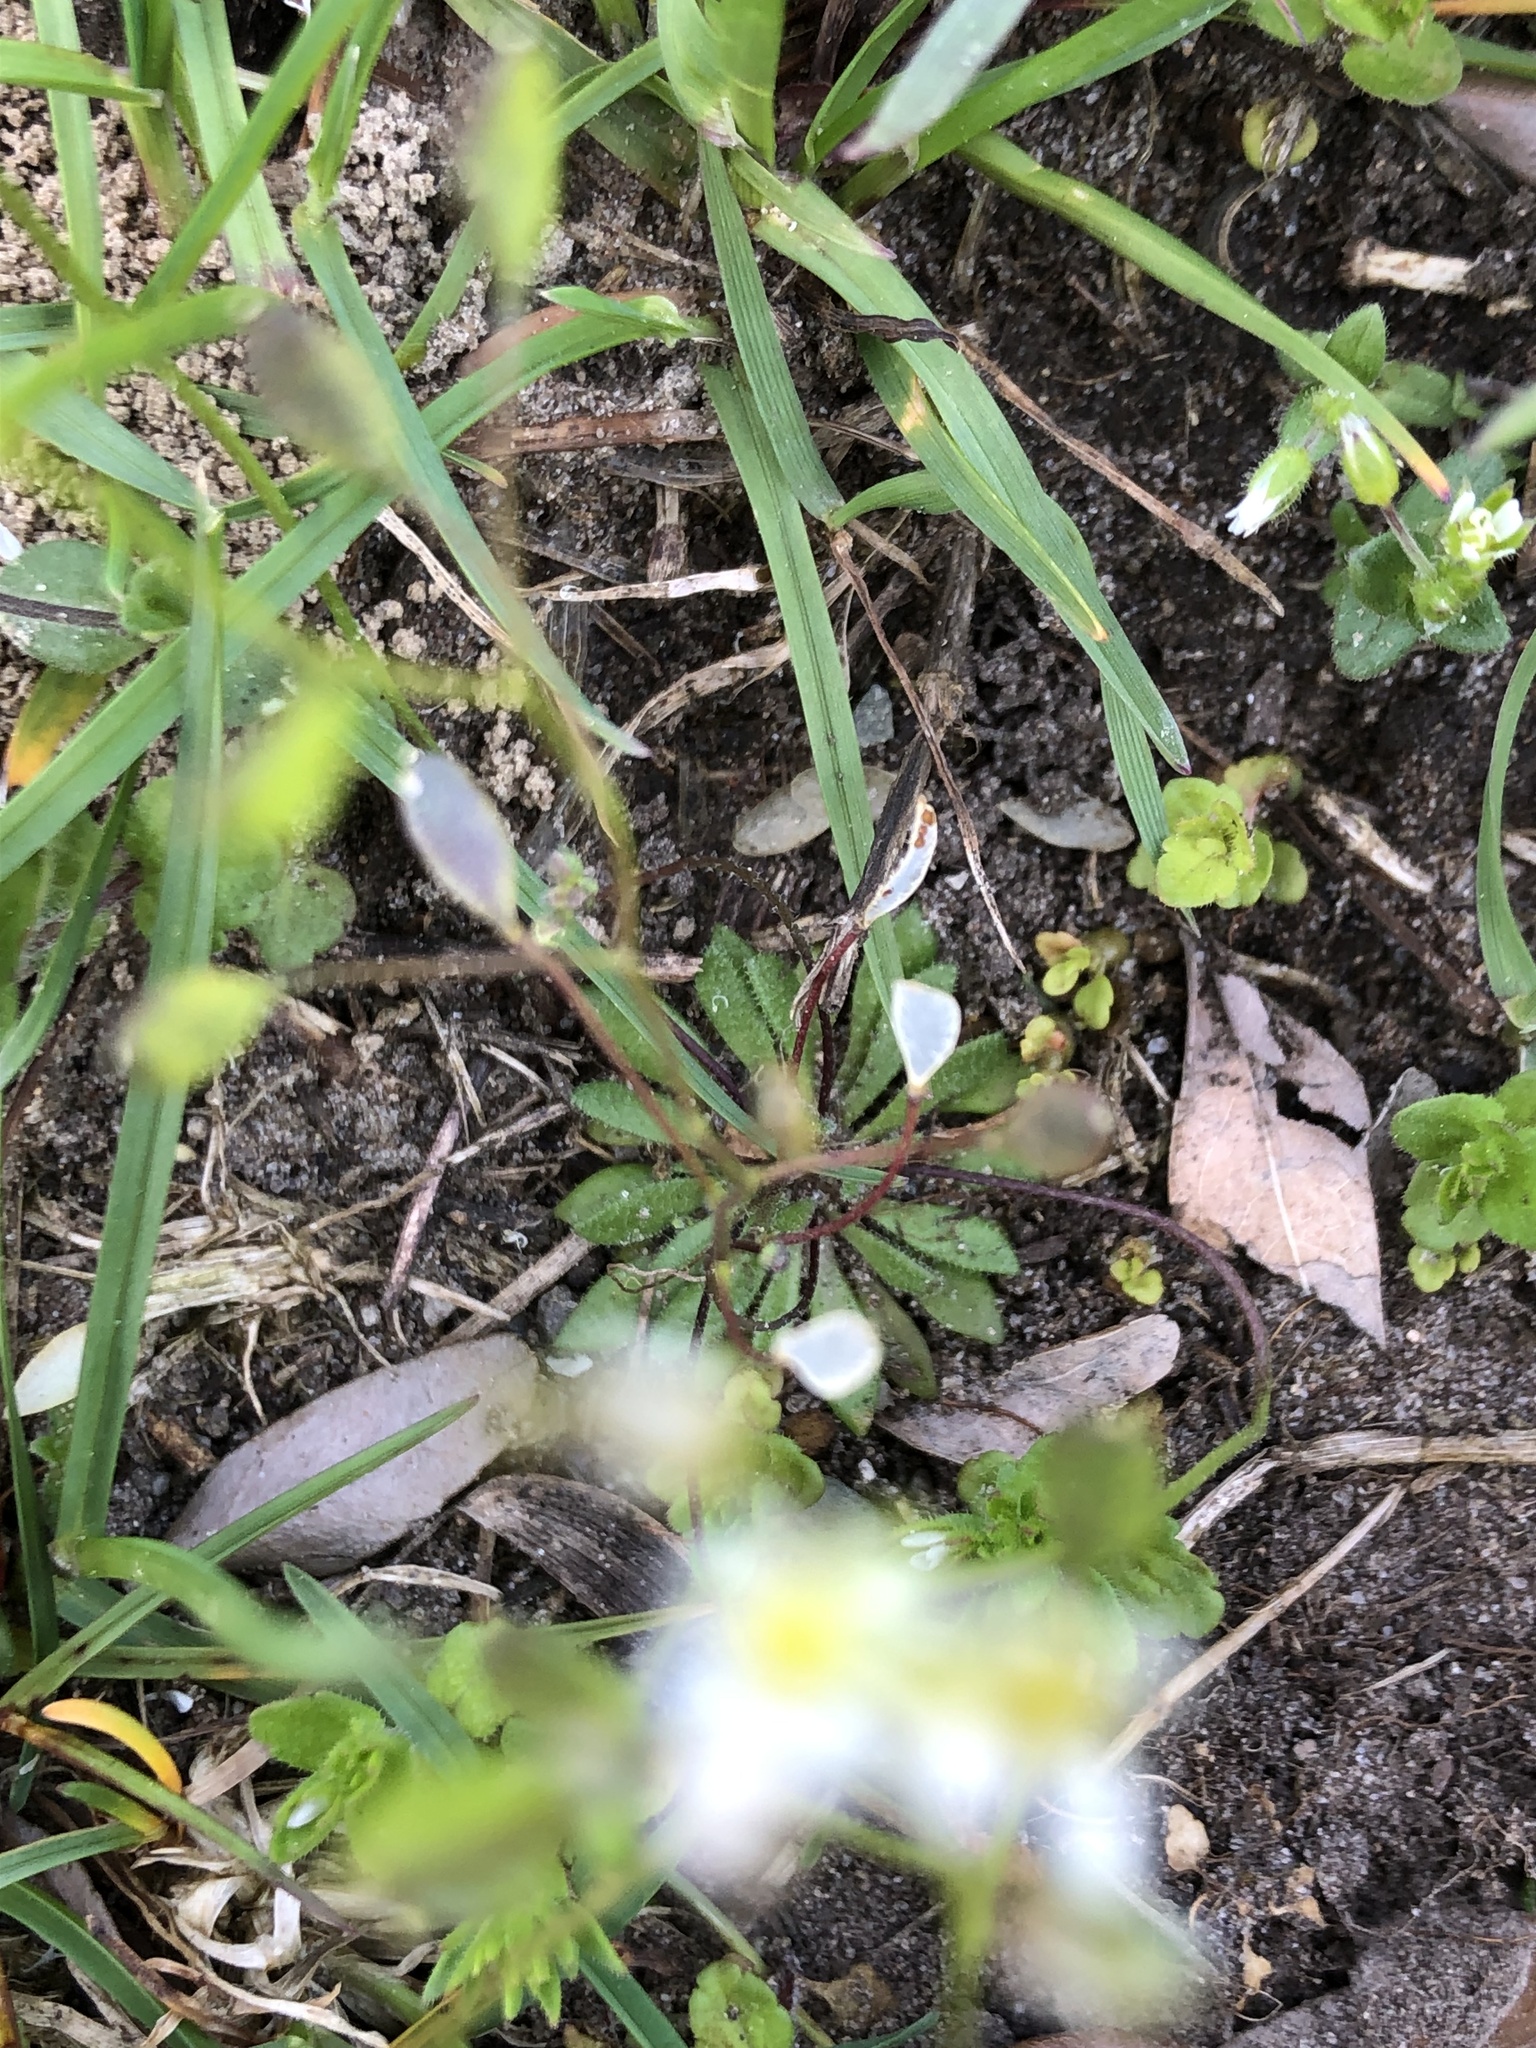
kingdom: Plantae
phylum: Tracheophyta
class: Magnoliopsida
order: Brassicales
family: Brassicaceae
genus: Draba
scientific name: Draba verna
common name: Spring draba
